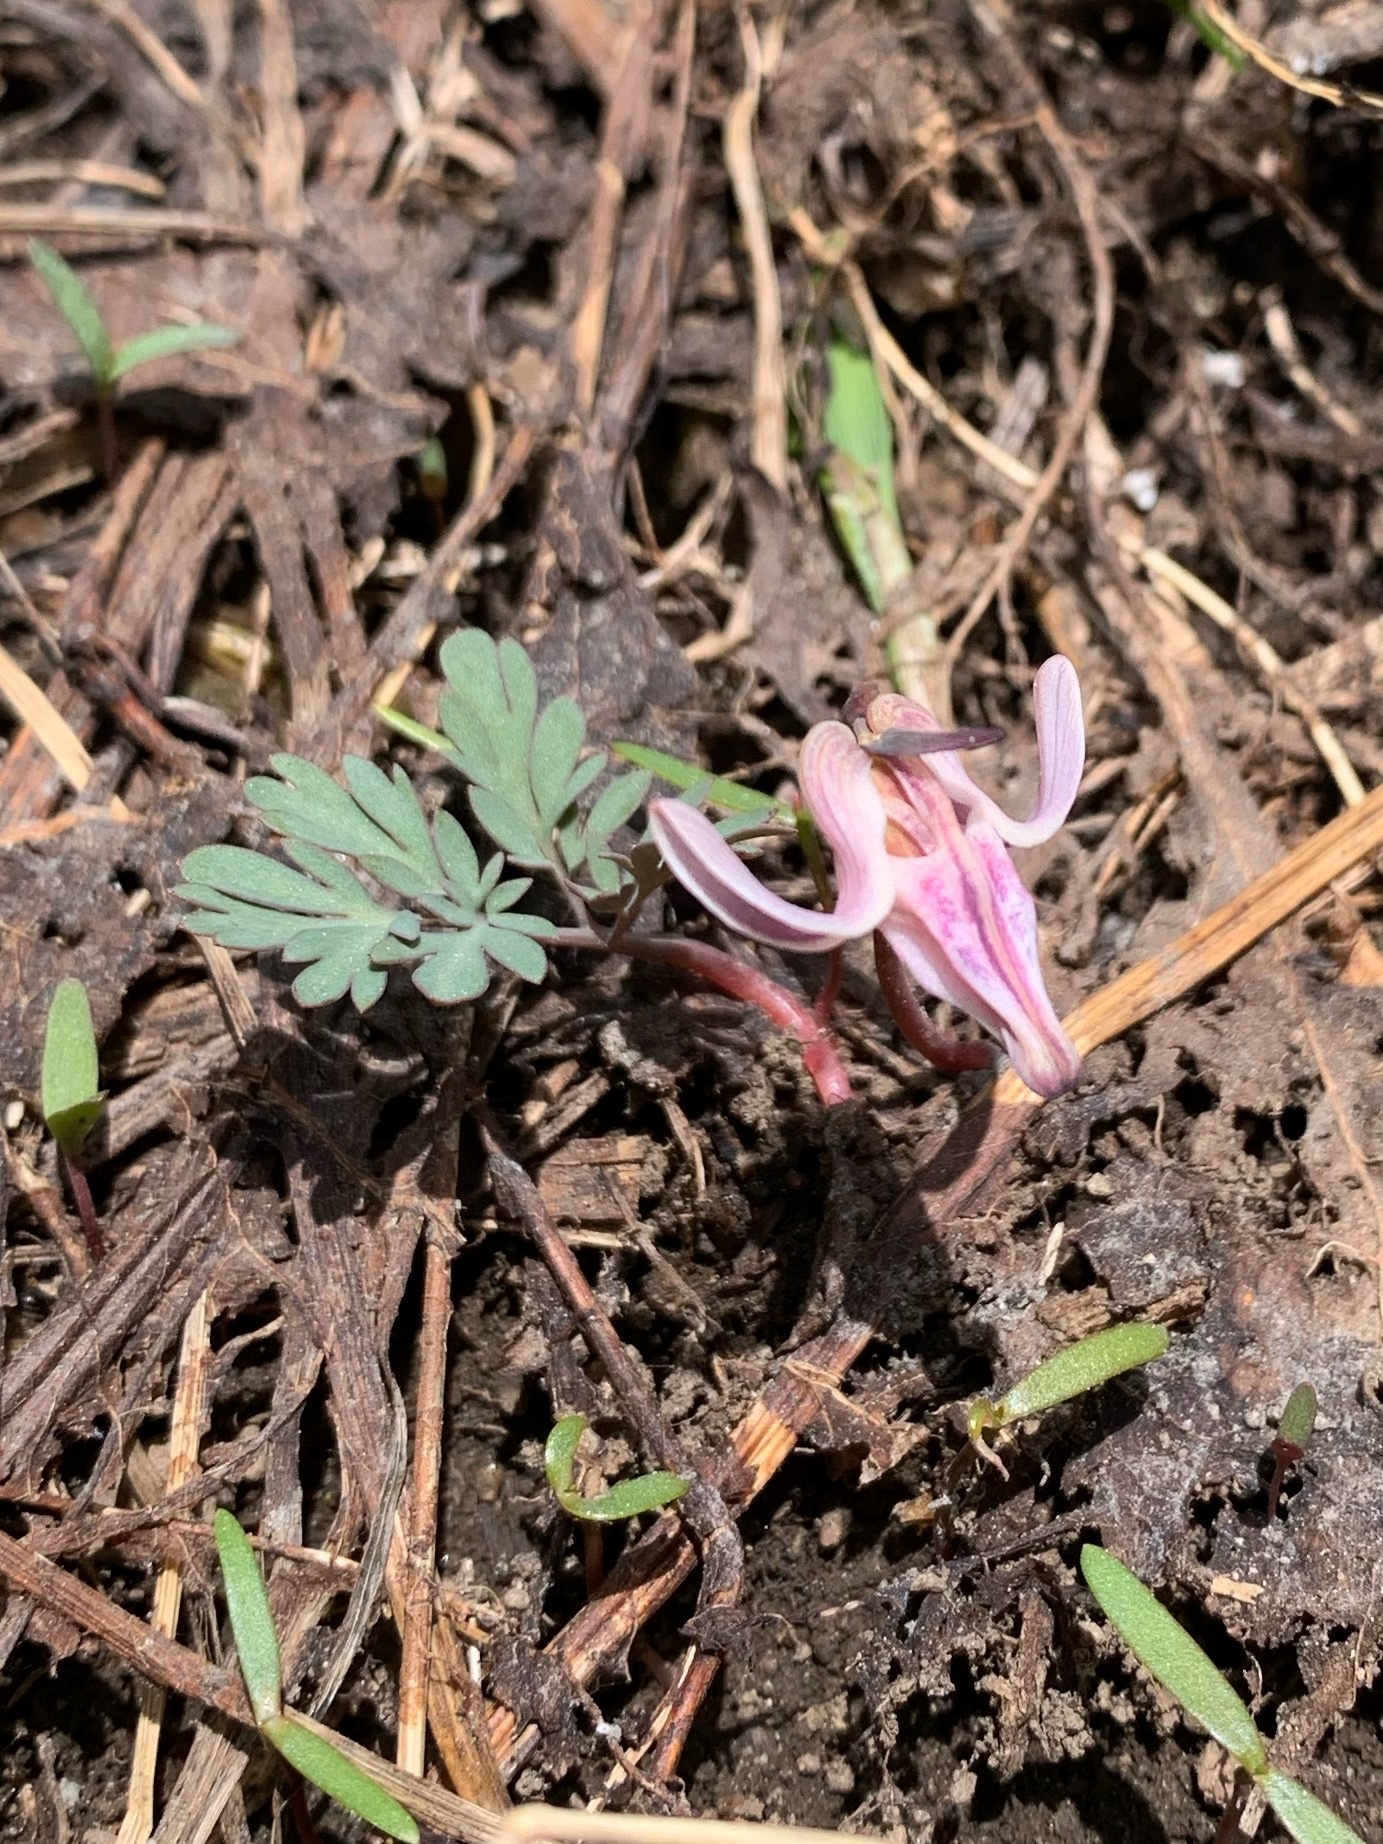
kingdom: Plantae
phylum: Tracheophyta
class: Magnoliopsida
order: Ranunculales
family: Papaveraceae
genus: Dicentra
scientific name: Dicentra uniflora
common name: Steer's-head
